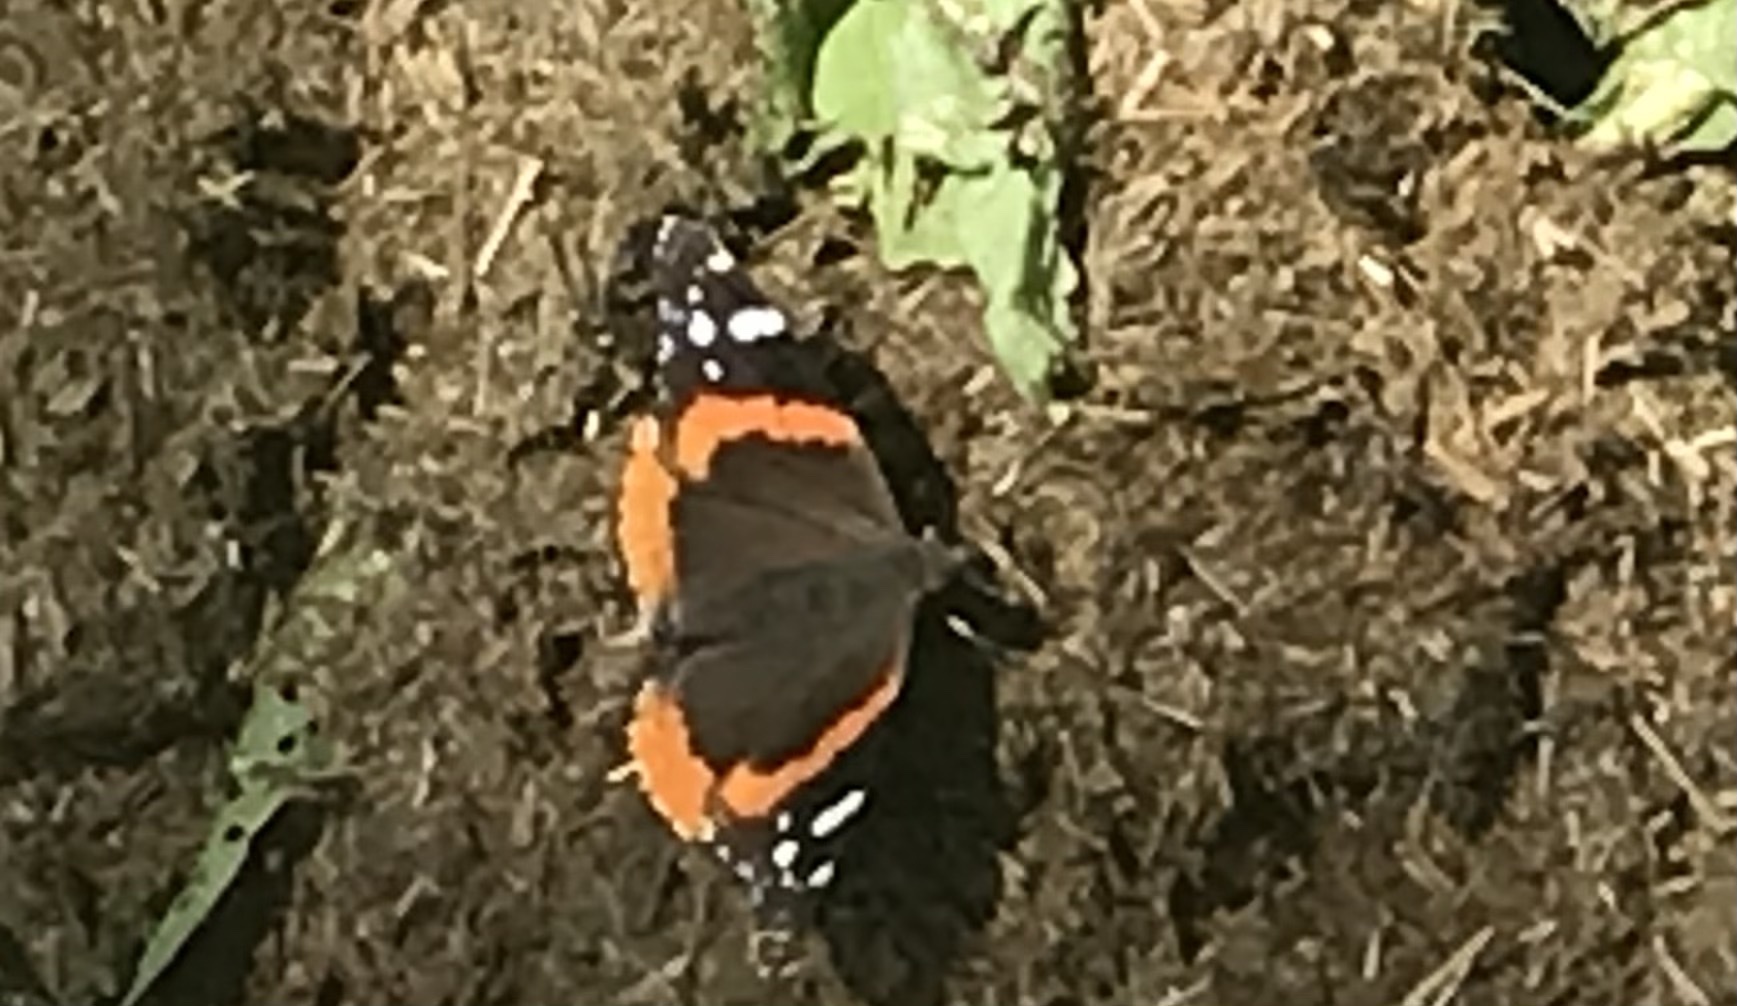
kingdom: Animalia
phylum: Arthropoda
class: Insecta
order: Lepidoptera
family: Nymphalidae
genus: Vanessa
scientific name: Vanessa atalanta
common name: Red admiral
